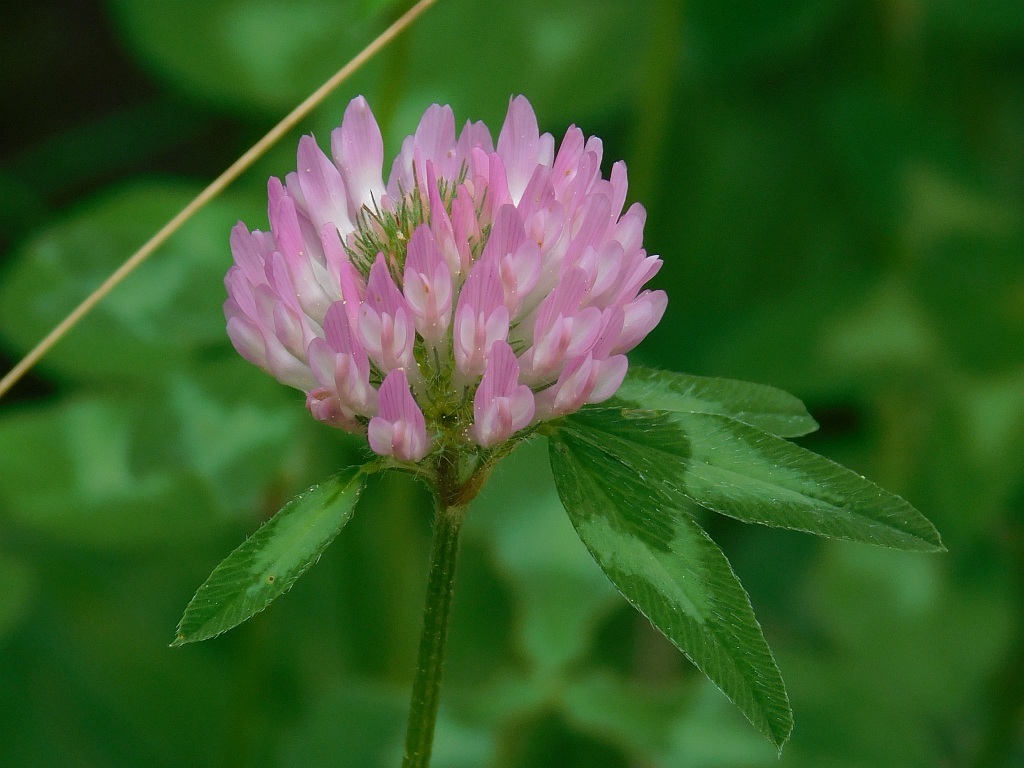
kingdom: Plantae
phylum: Tracheophyta
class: Magnoliopsida
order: Fabales
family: Fabaceae
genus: Trifolium
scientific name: Trifolium pratense
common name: Red clover
